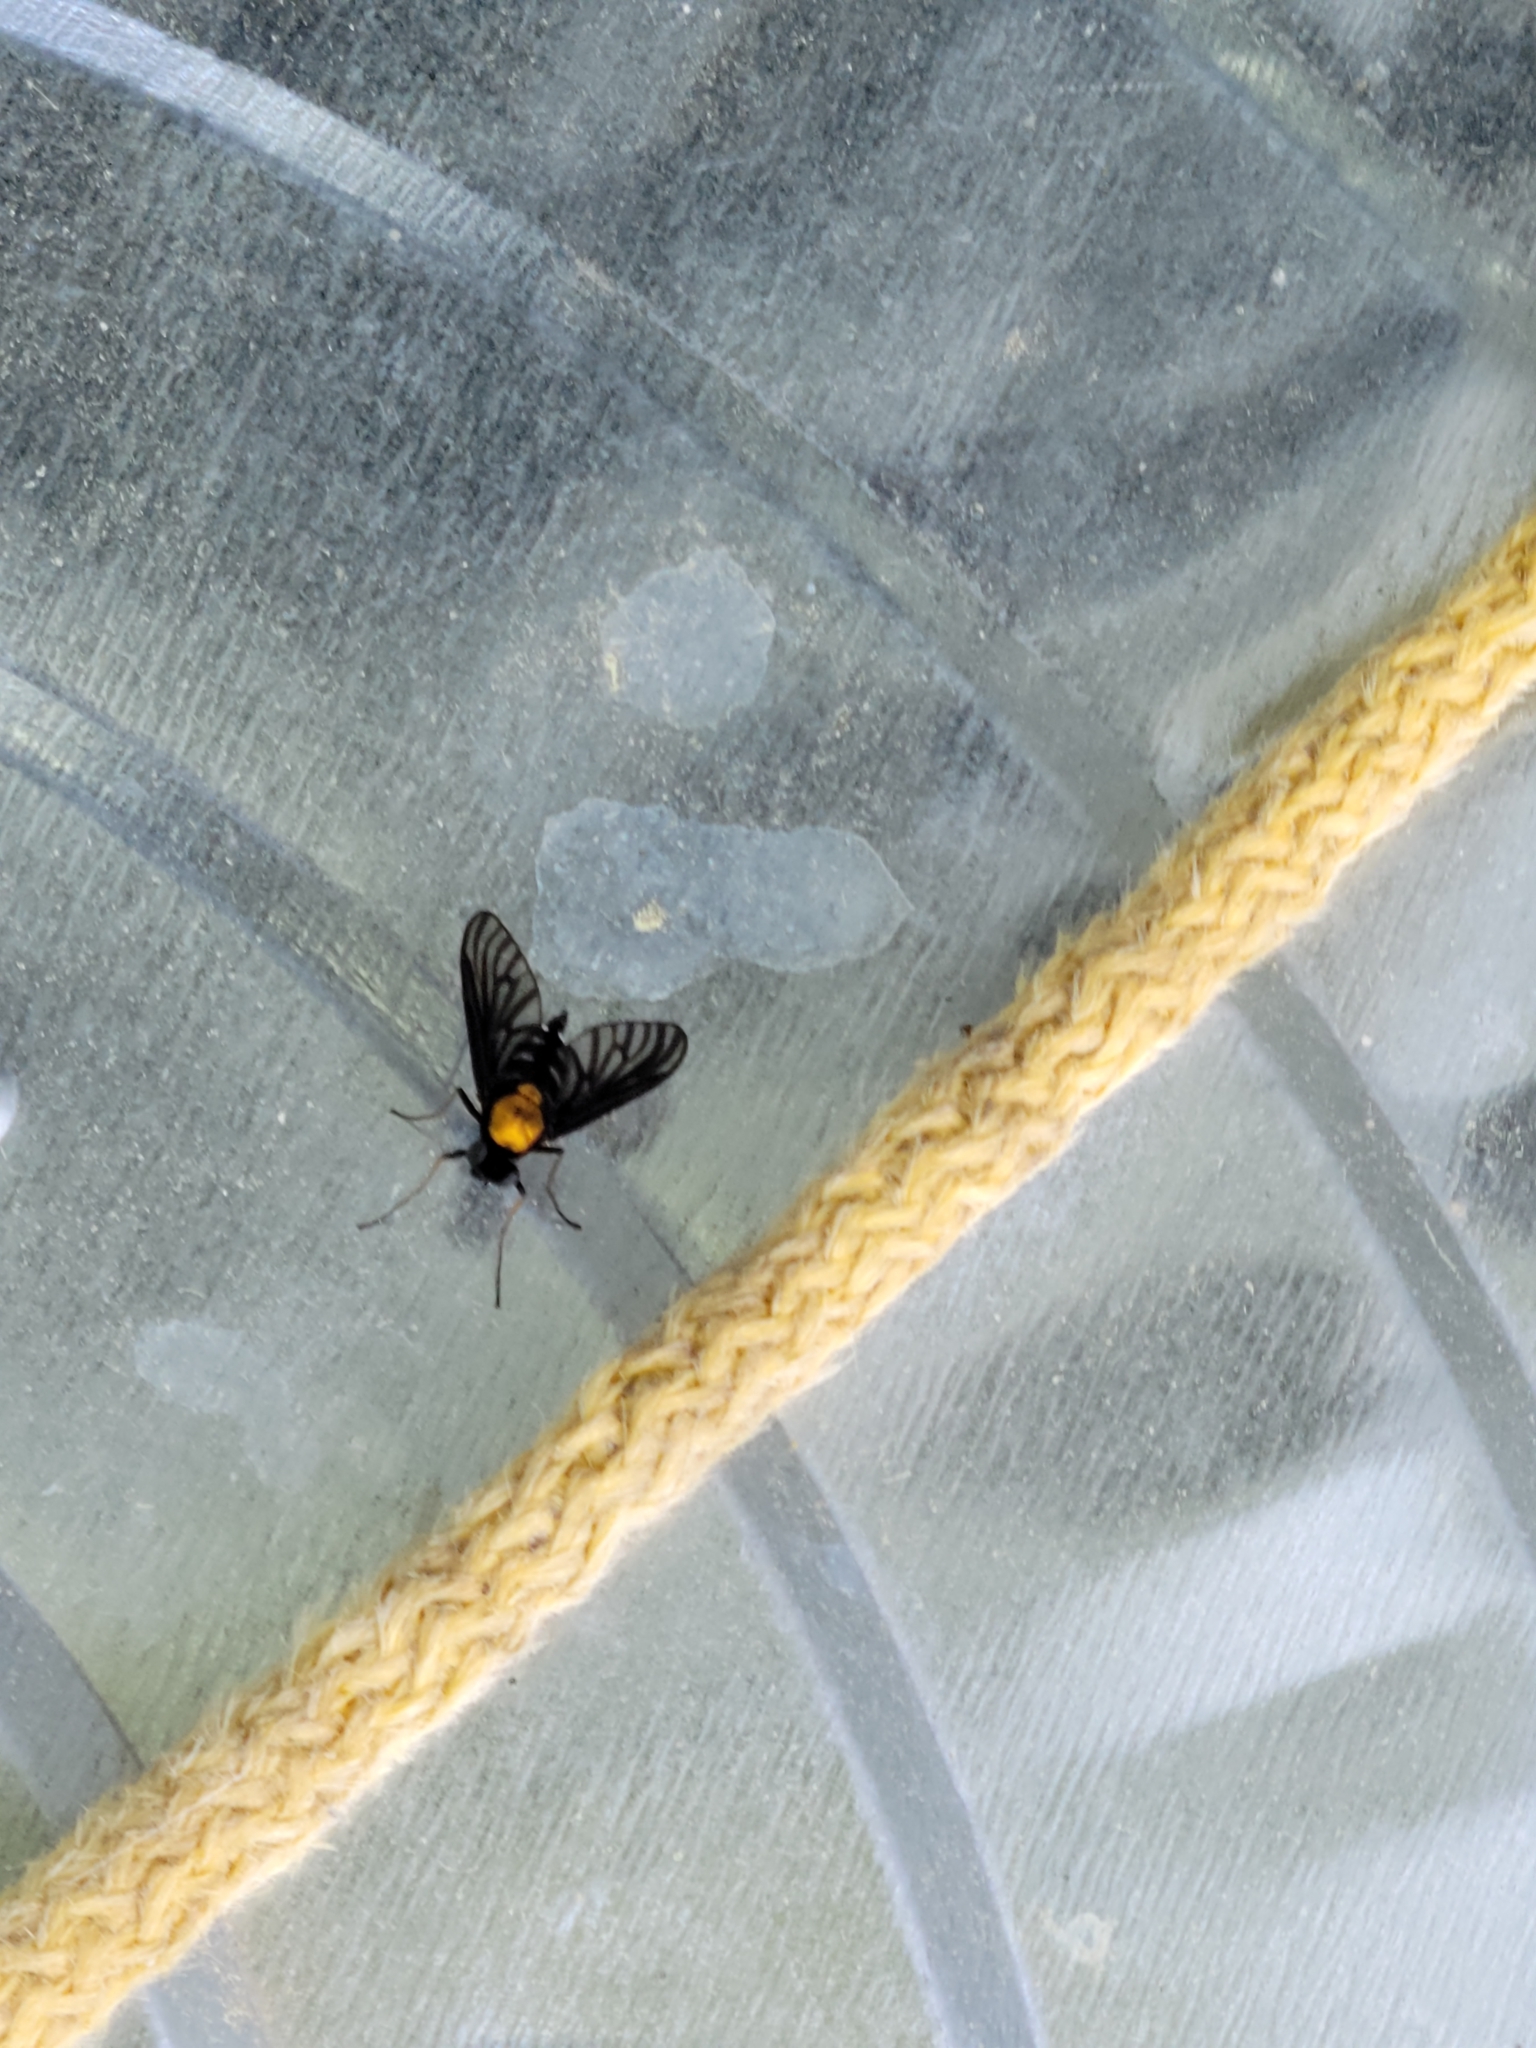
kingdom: Animalia
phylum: Arthropoda
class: Insecta
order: Diptera
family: Rhagionidae
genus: Chrysopilus
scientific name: Chrysopilus thoracicus
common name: Golden-backed snipe fly
